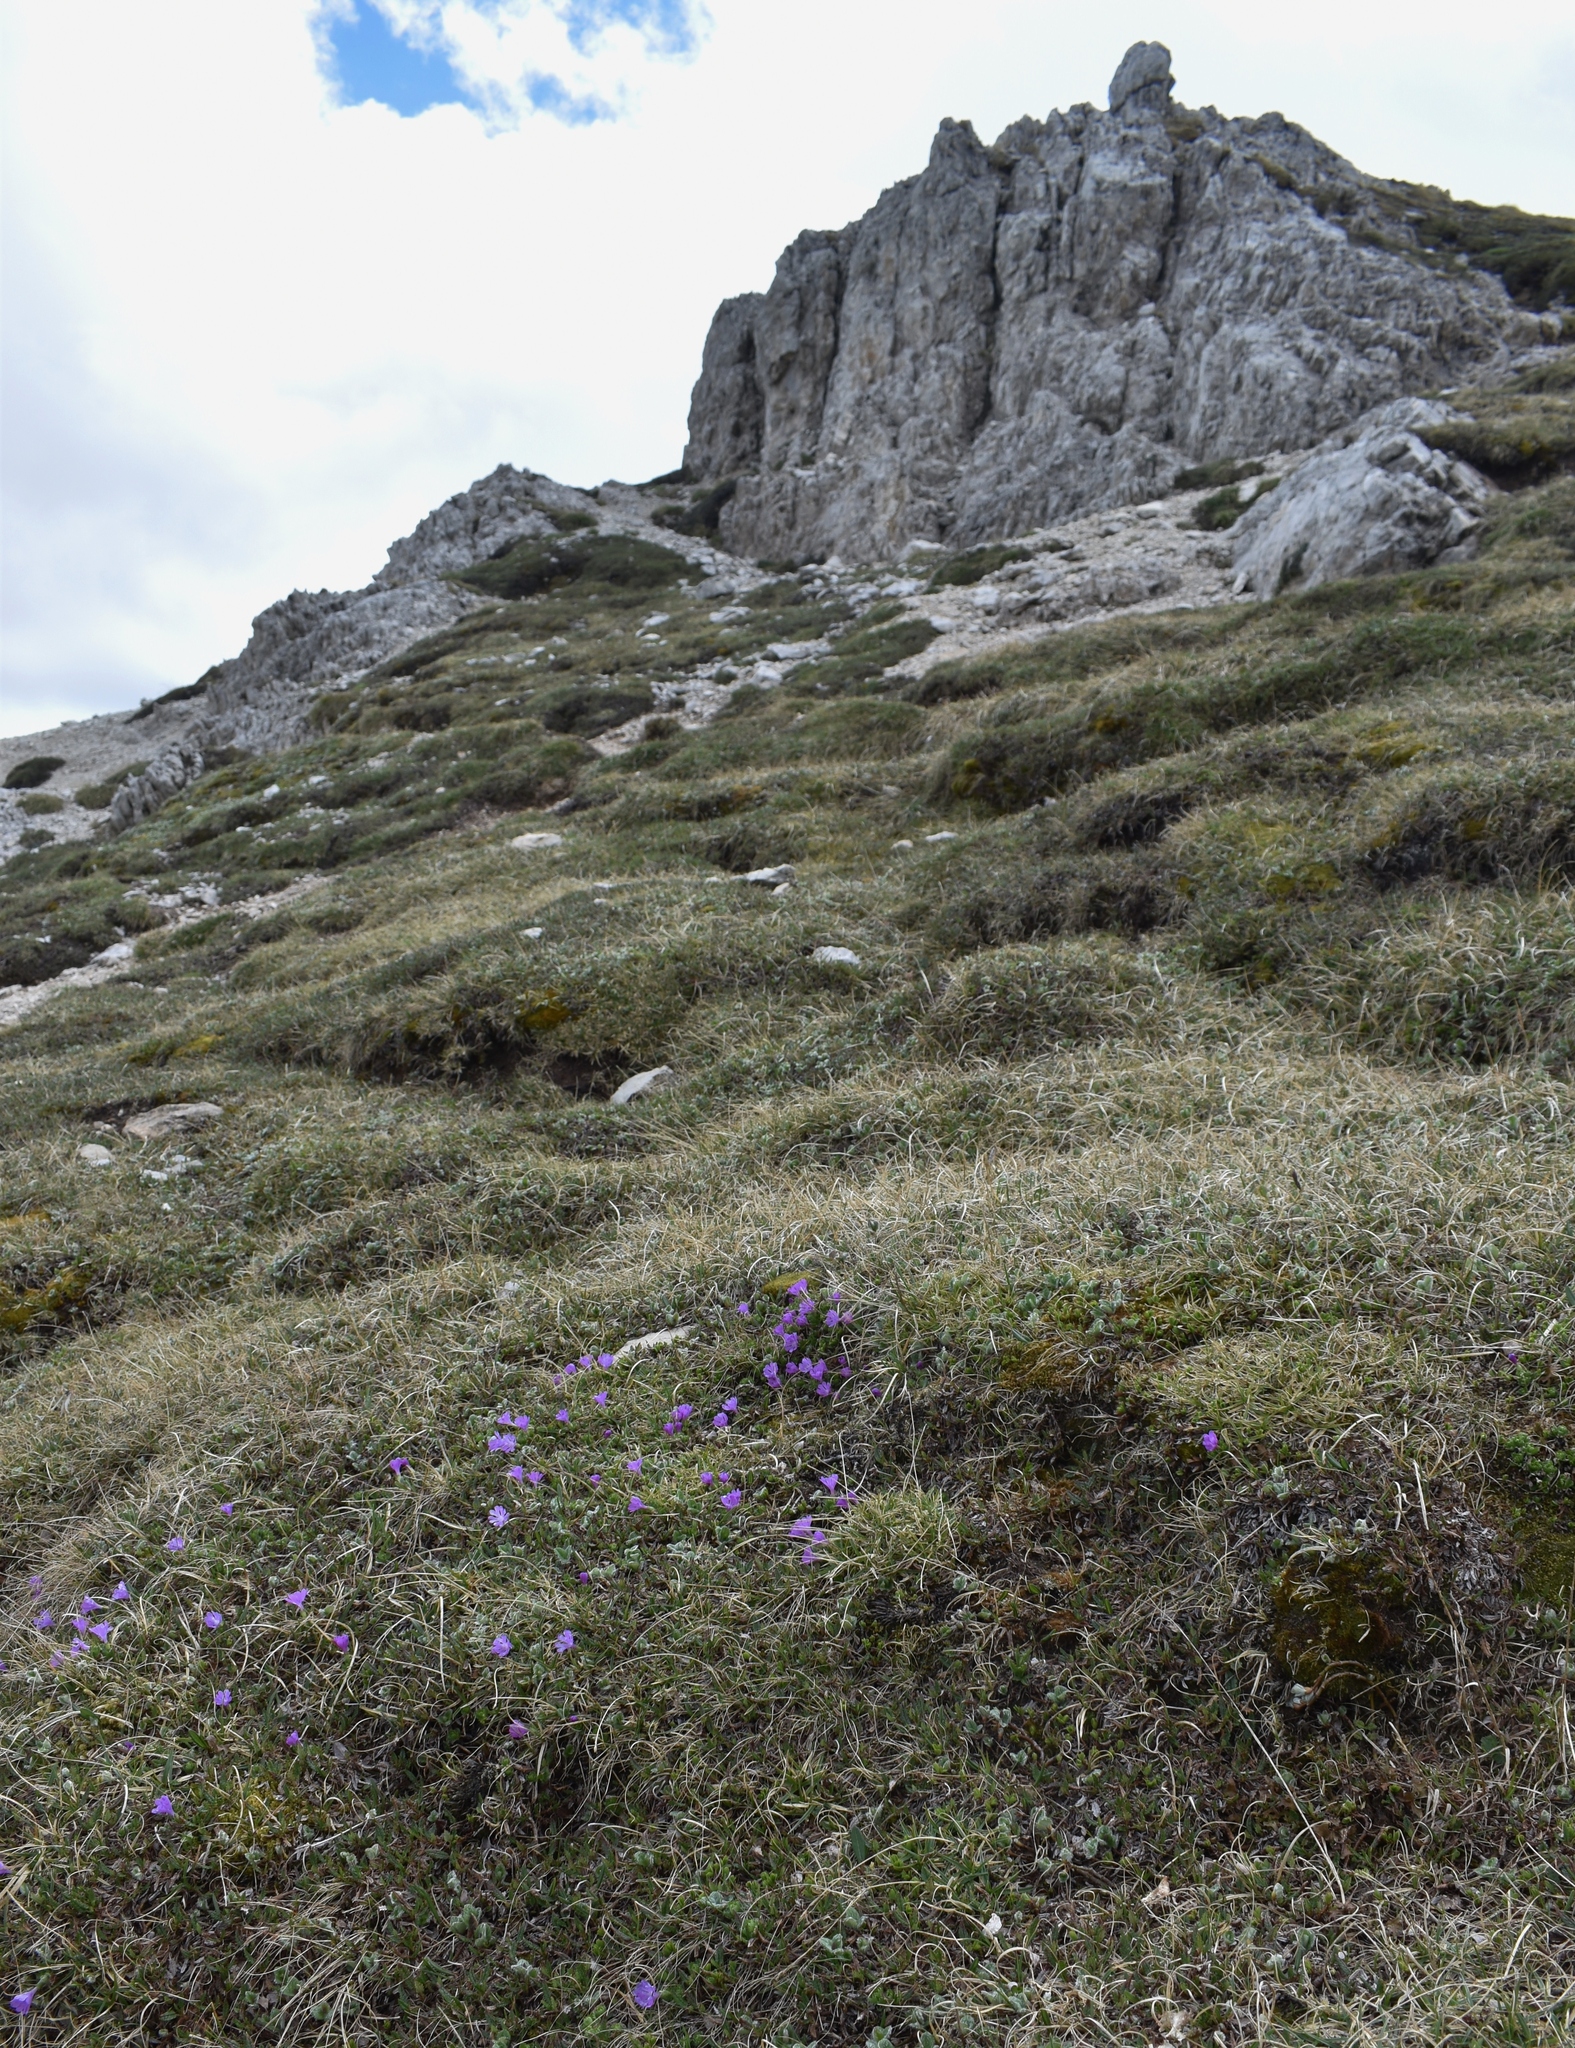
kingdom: Plantae
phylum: Tracheophyta
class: Magnoliopsida
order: Ericales
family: Primulaceae
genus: Primula
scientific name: Primula minima
